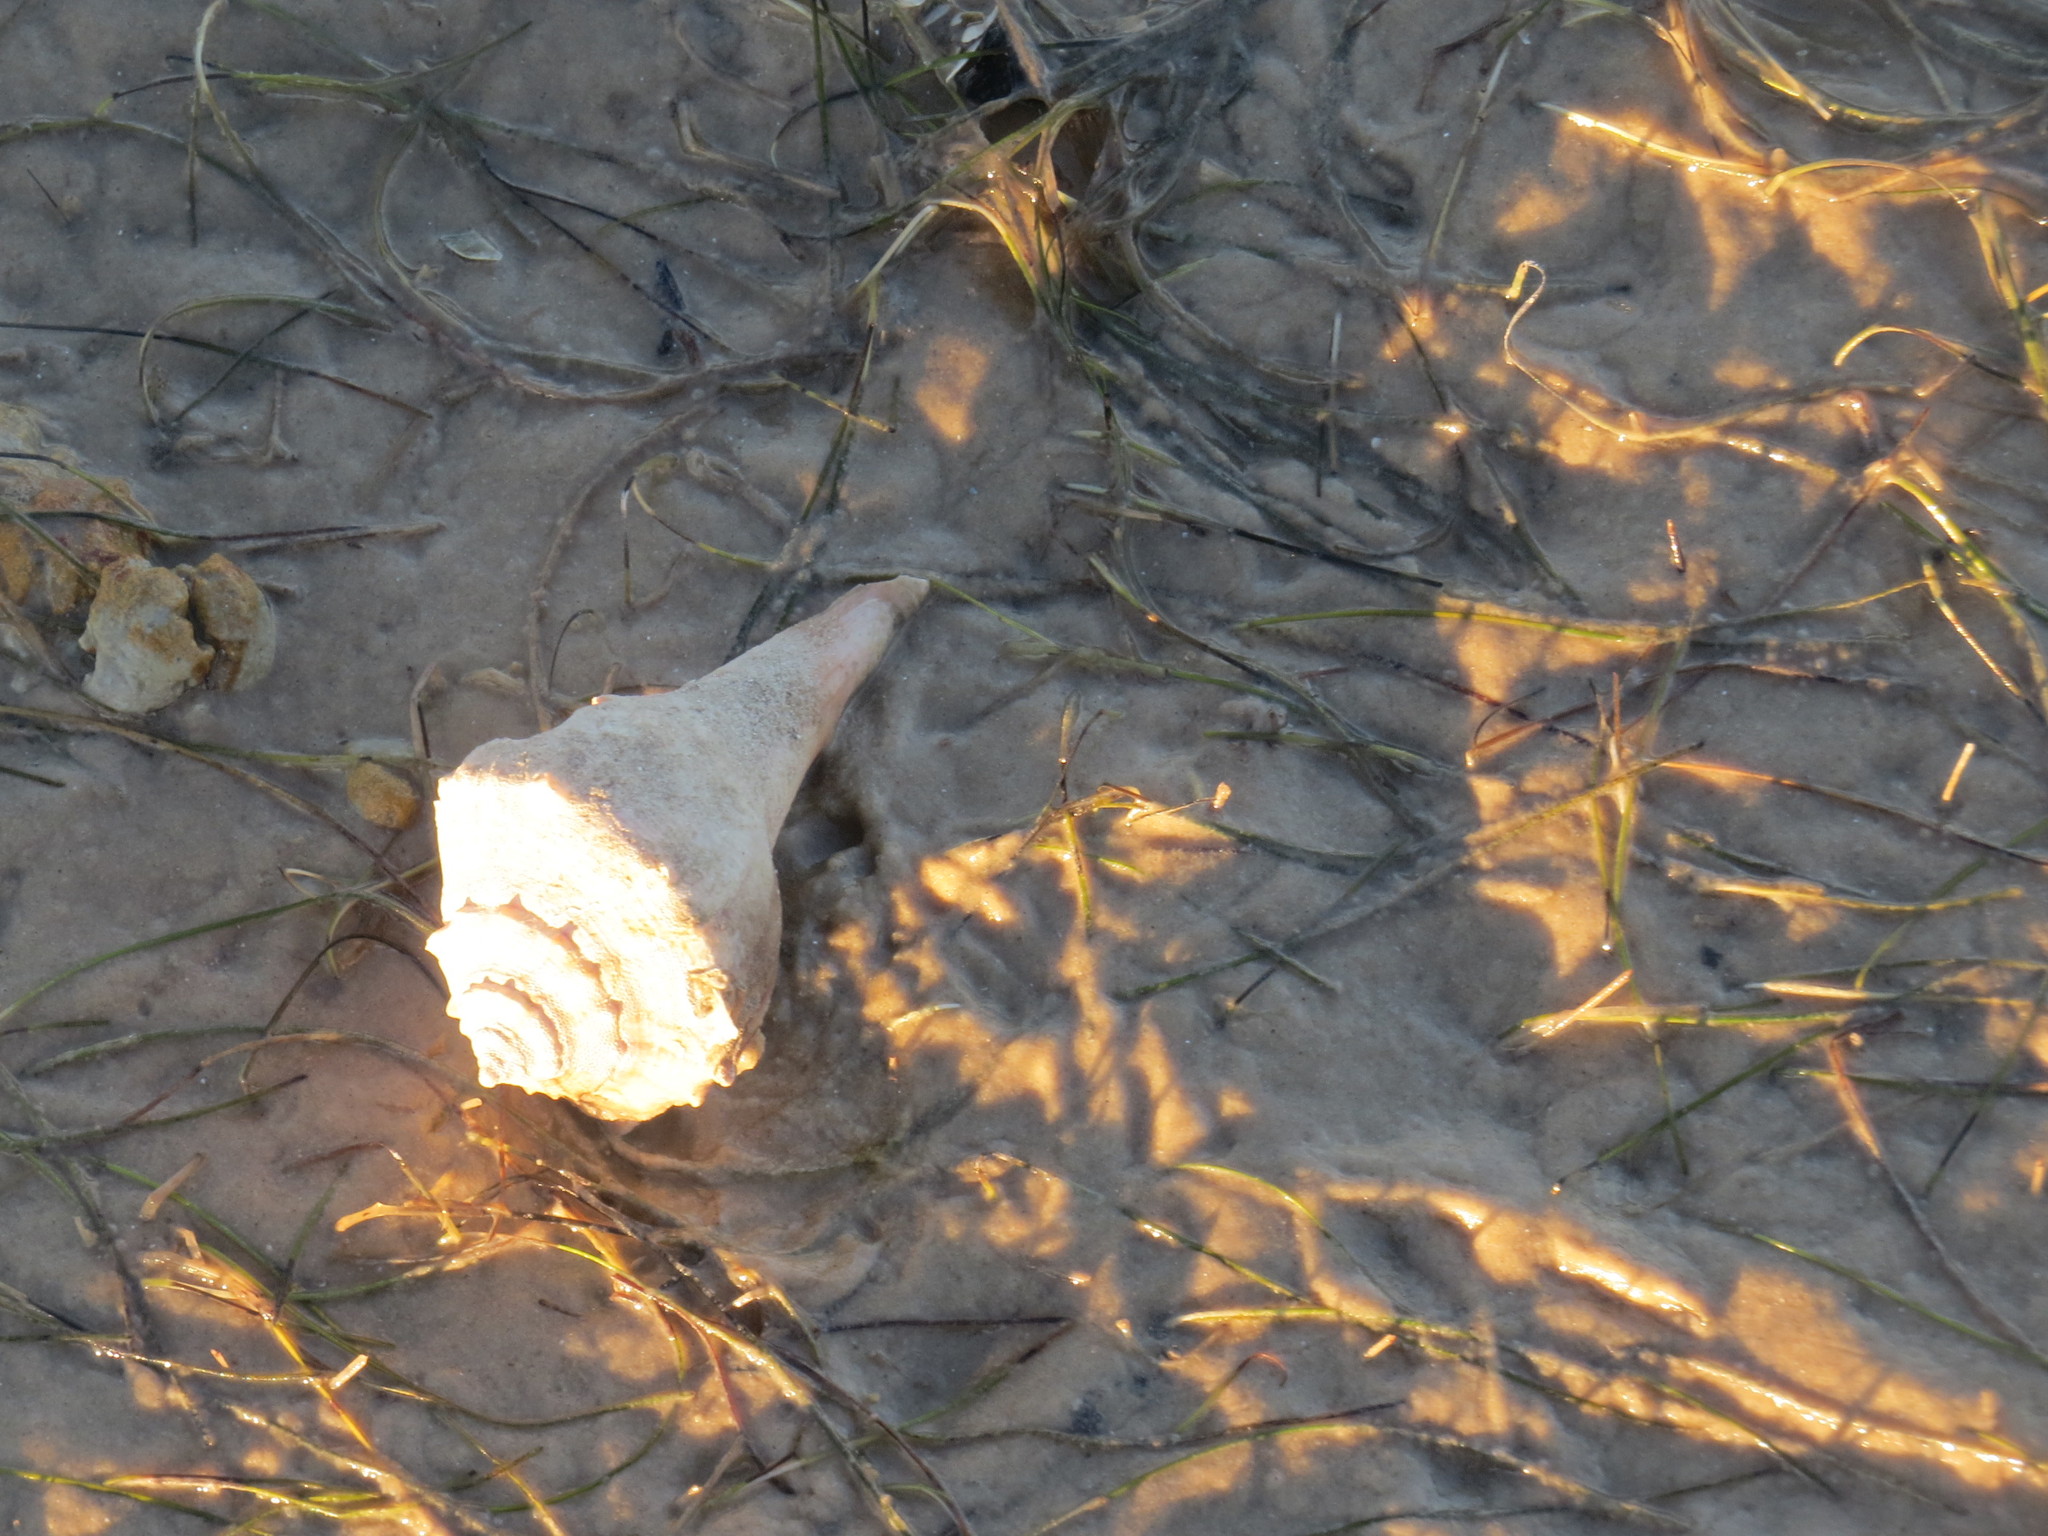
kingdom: Animalia
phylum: Mollusca
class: Gastropoda
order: Neogastropoda
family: Busyconidae
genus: Sinistrofulgur
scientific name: Sinistrofulgur pulleyi
